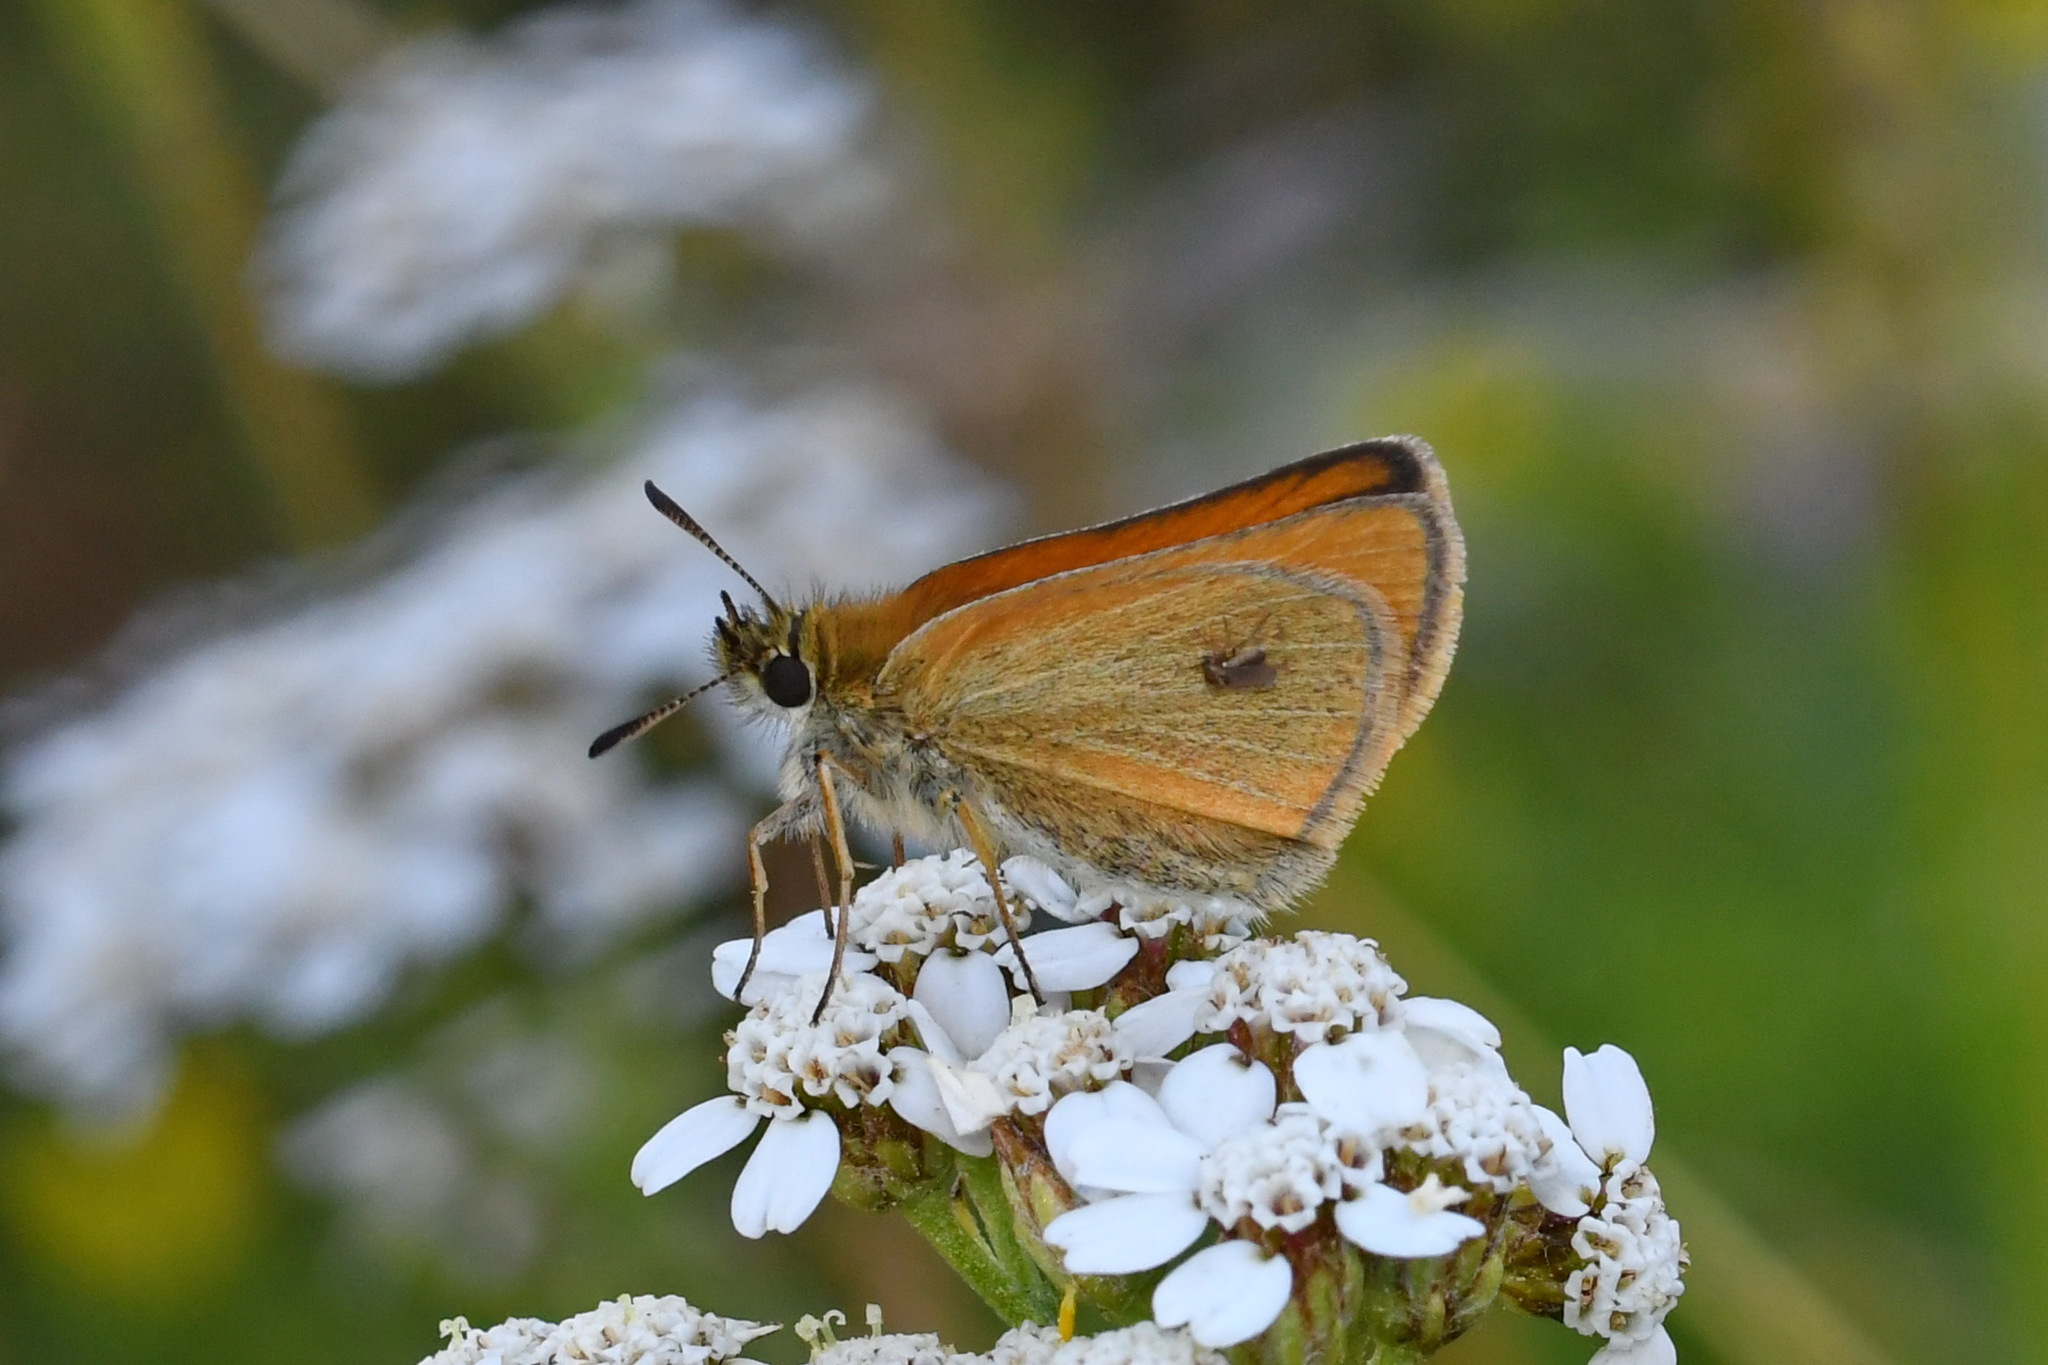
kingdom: Animalia
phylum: Arthropoda
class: Insecta
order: Lepidoptera
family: Hesperiidae
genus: Thymelicus
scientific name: Thymelicus lineola
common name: Essex skipper
